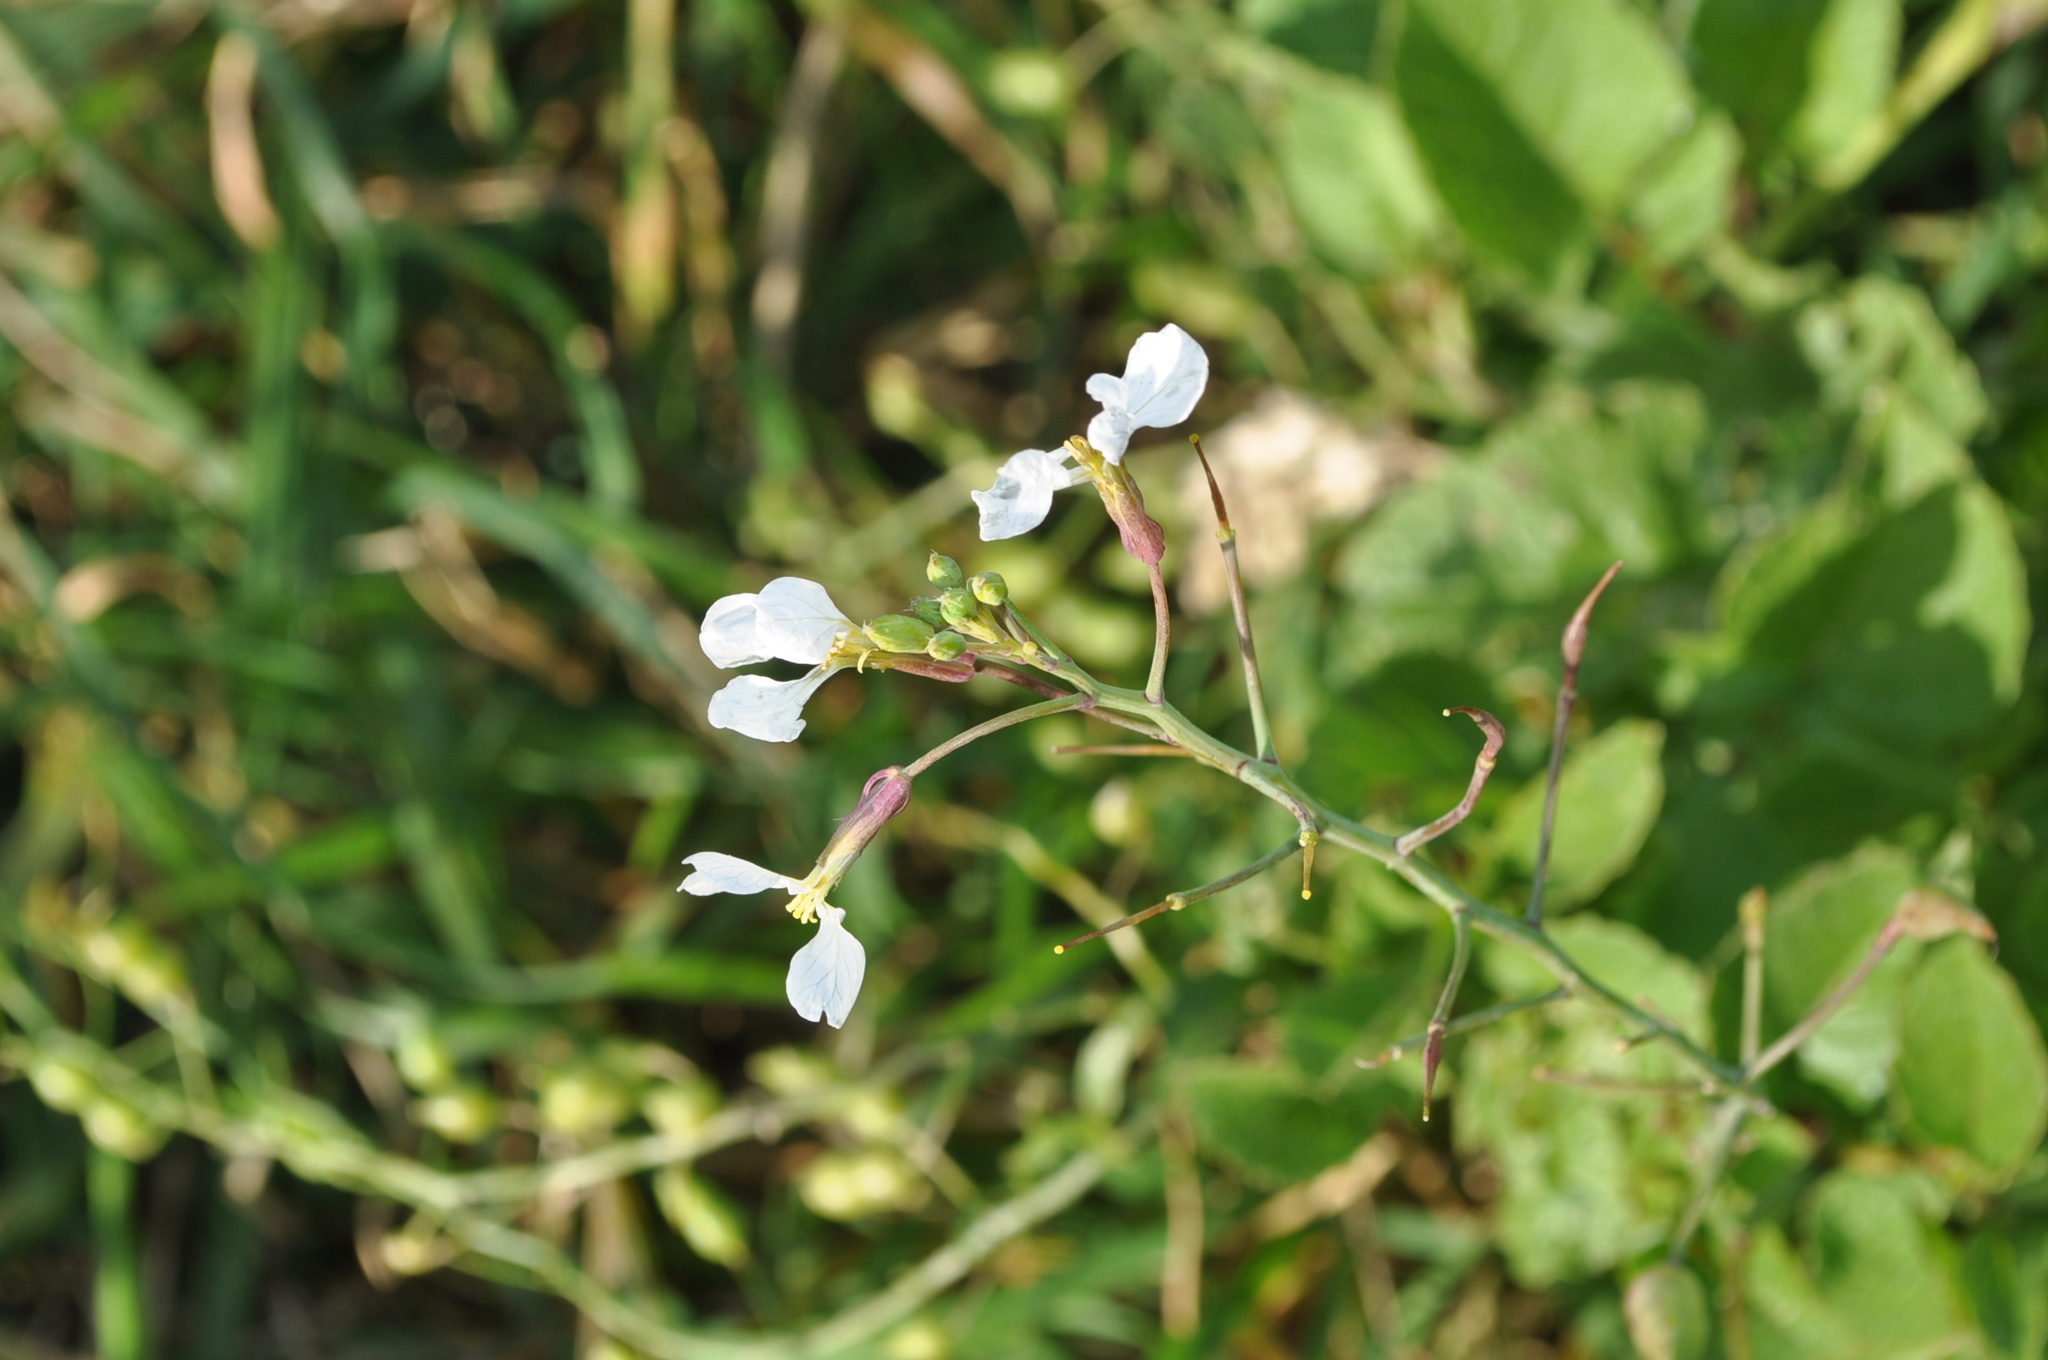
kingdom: Plantae
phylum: Tracheophyta
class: Magnoliopsida
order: Brassicales
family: Brassicaceae
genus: Raphanus
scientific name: Raphanus raphanistrum
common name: Wild radish
